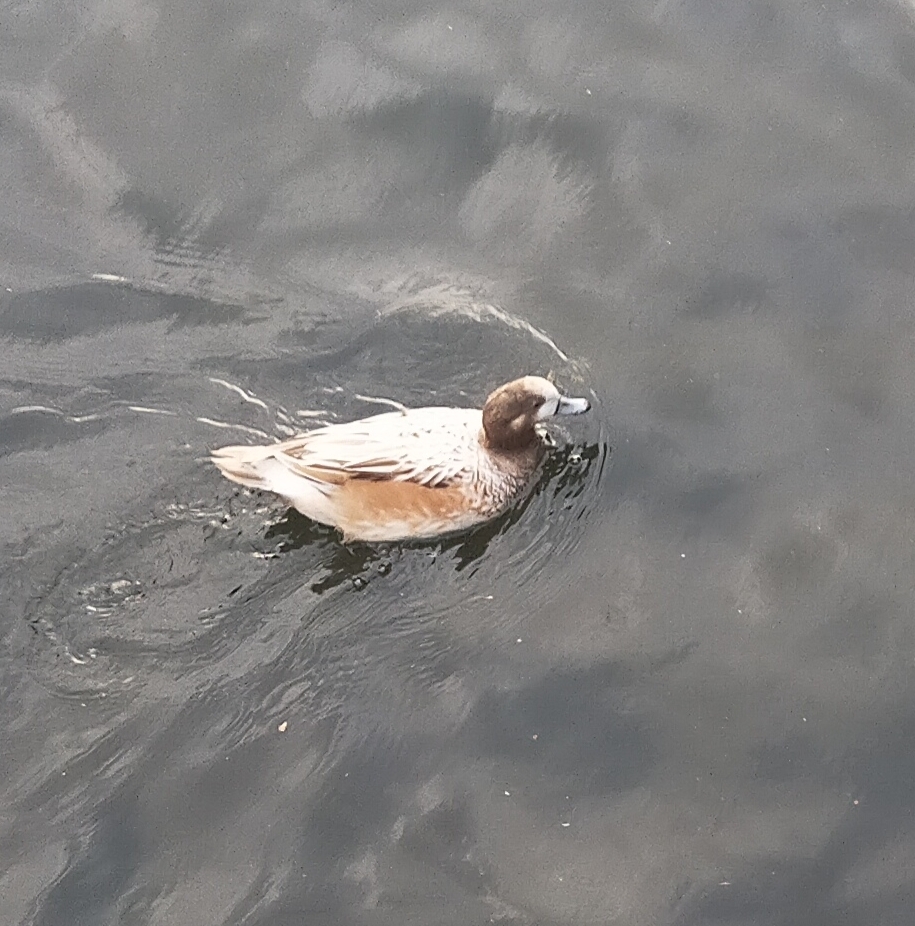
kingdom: Animalia
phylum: Chordata
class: Aves
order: Anseriformes
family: Anatidae
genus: Mareca
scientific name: Mareca sibilatrix
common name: Chiloe wigeon
